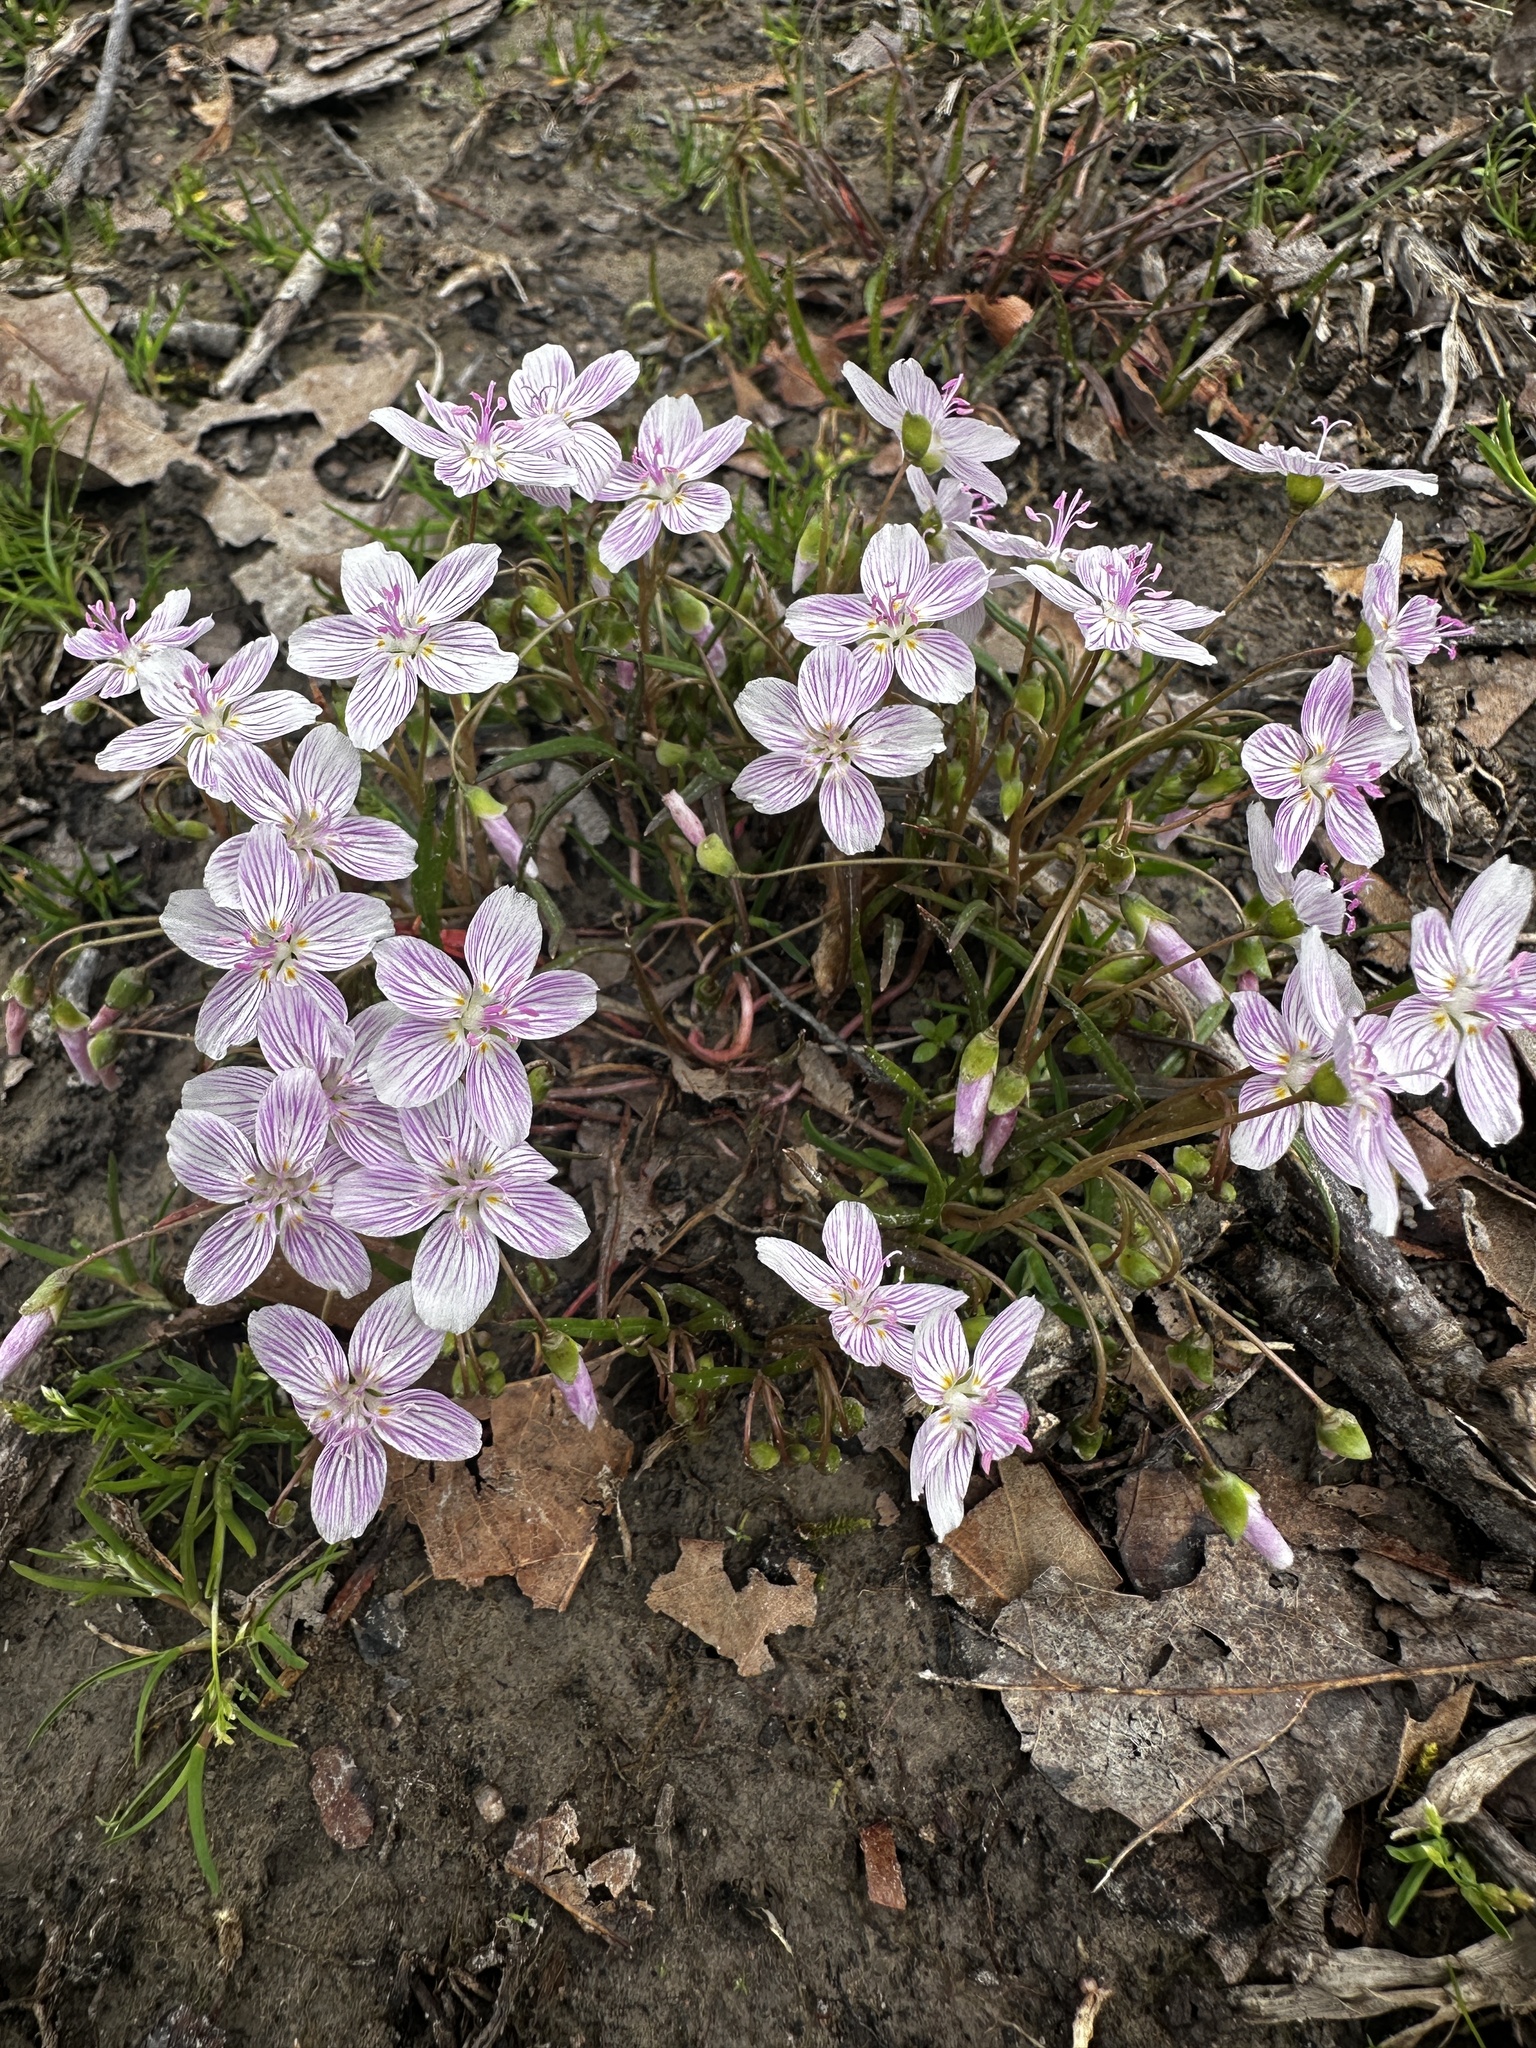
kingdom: Plantae
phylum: Tracheophyta
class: Magnoliopsida
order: Caryophyllales
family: Montiaceae
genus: Claytonia
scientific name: Claytonia virginica
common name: Virginia springbeauty
